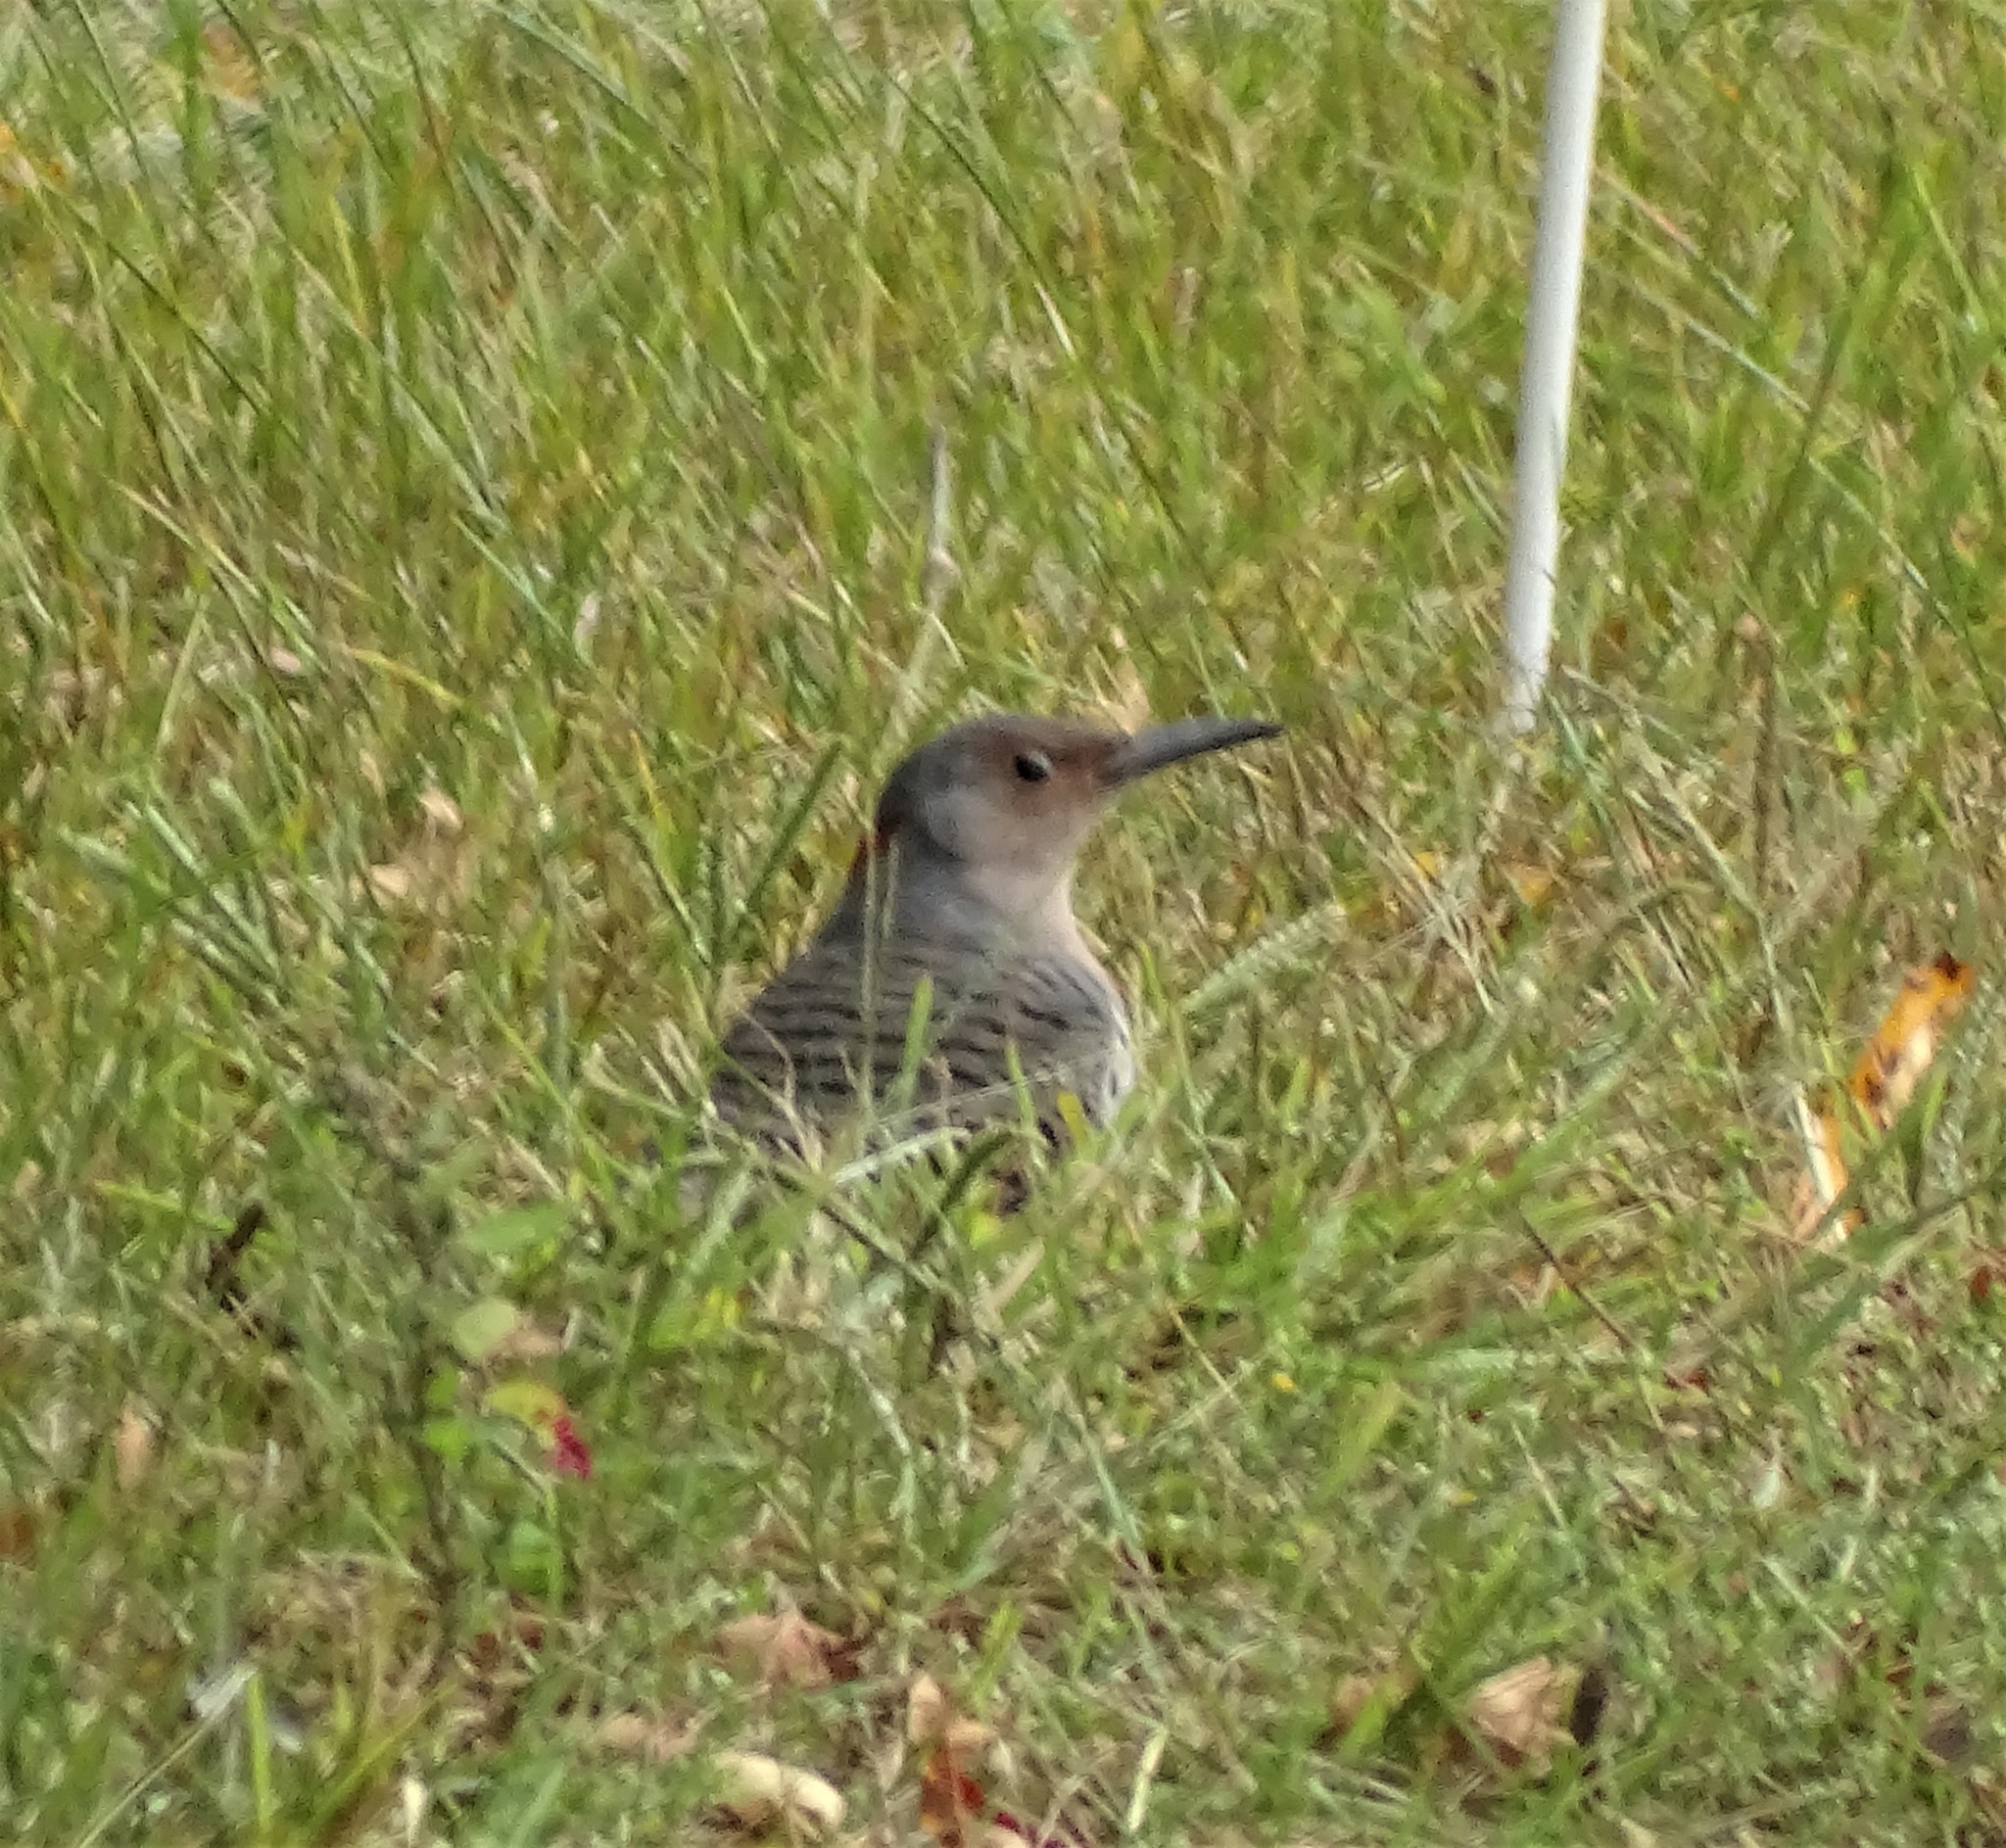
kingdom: Animalia
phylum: Chordata
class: Aves
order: Piciformes
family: Picidae
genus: Colaptes
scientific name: Colaptes auratus
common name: Northern flicker
